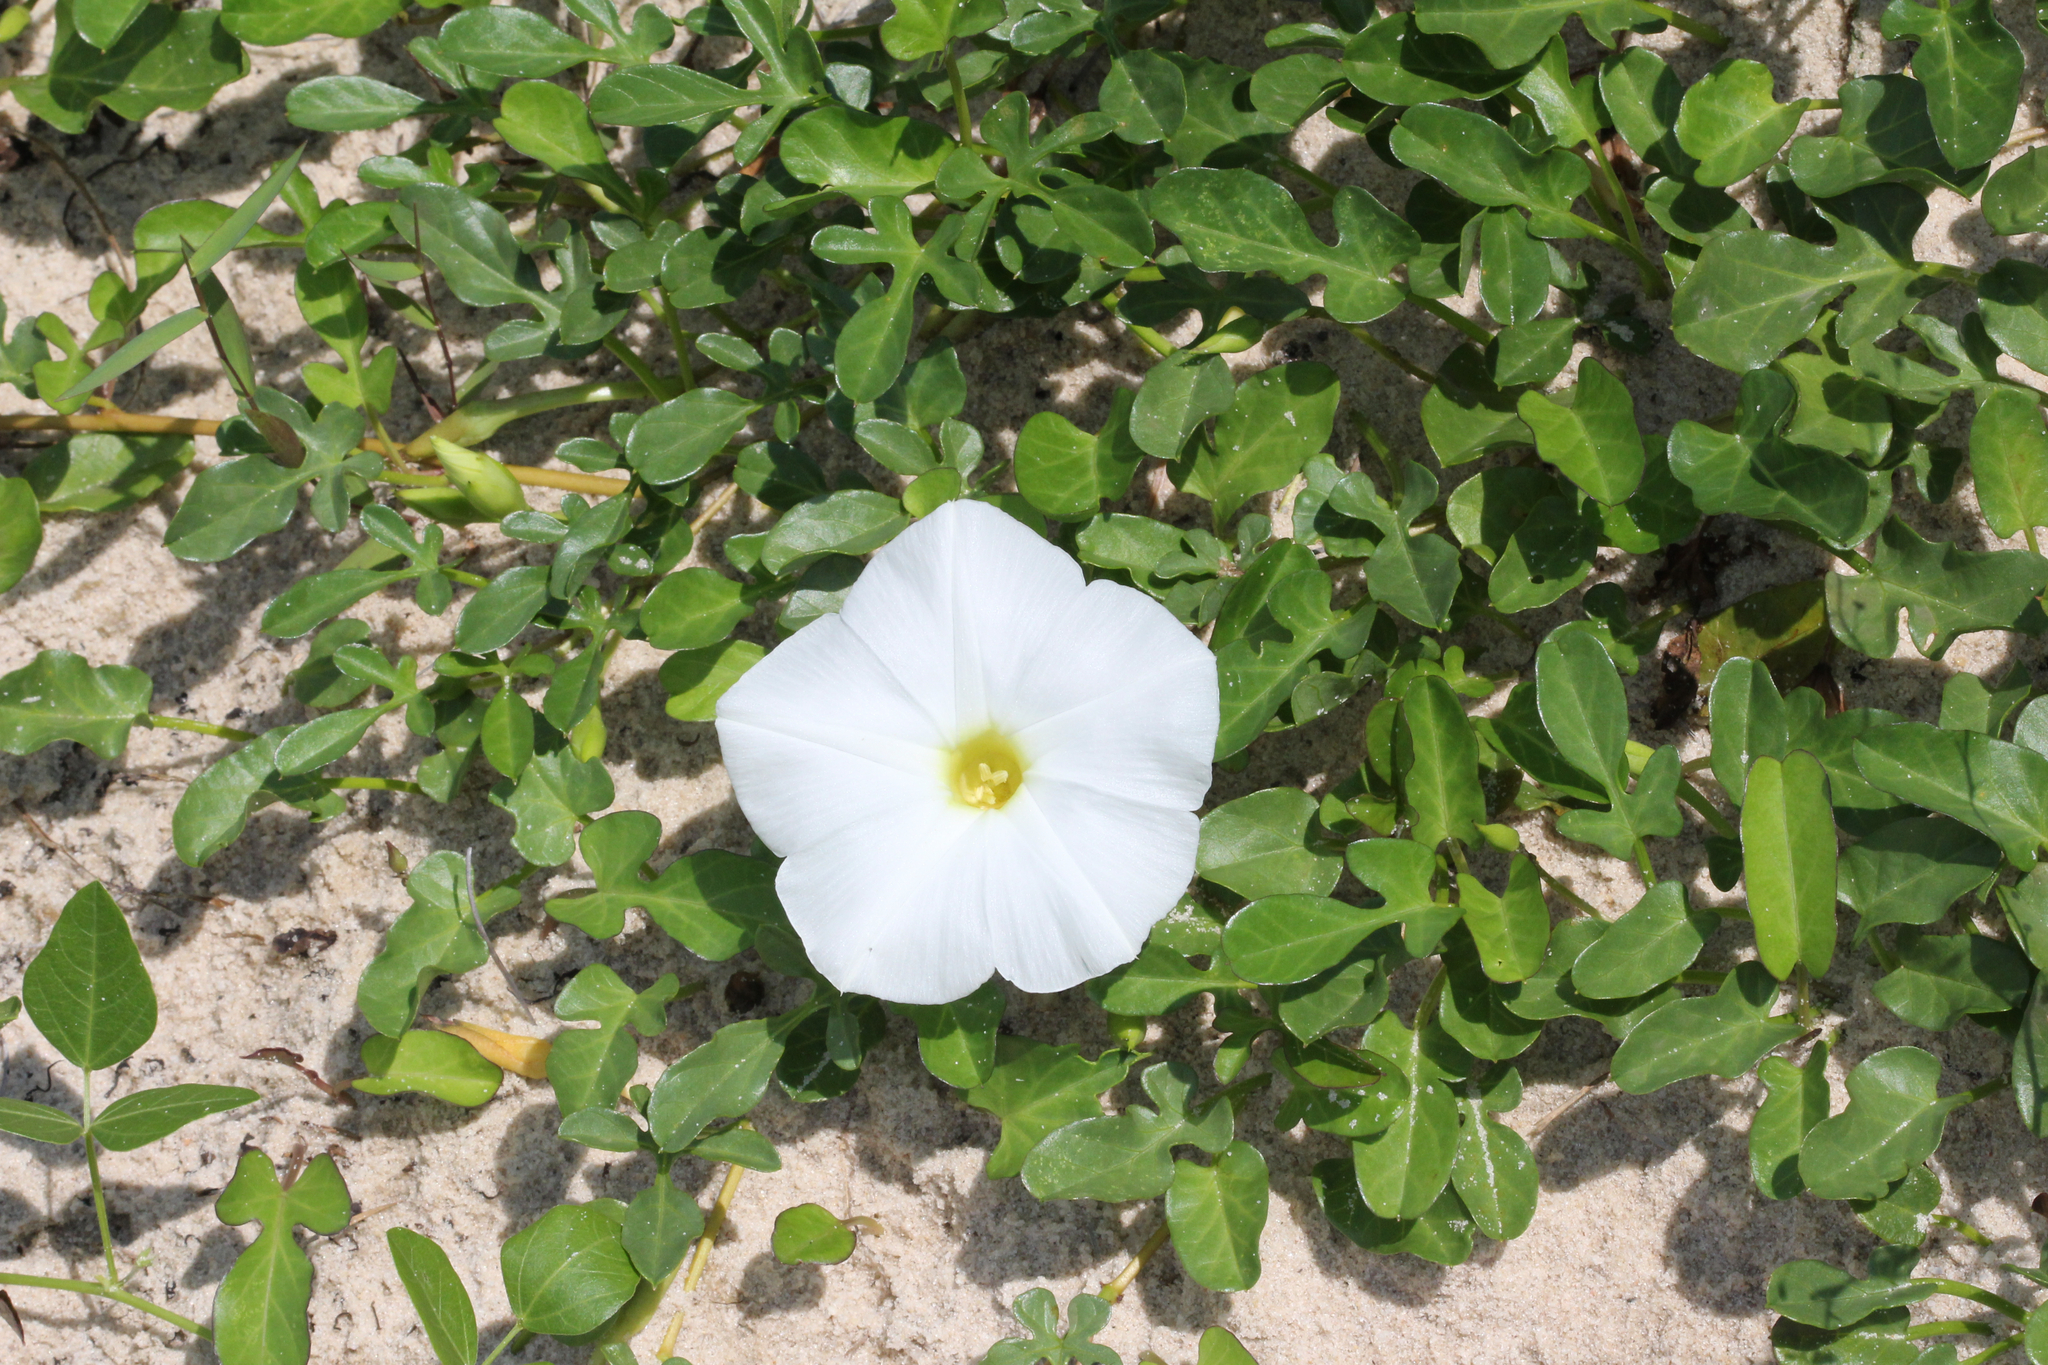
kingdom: Plantae
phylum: Tracheophyta
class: Magnoliopsida
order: Solanales
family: Convolvulaceae
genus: Ipomoea
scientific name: Ipomoea imperati
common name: Fiddle-leaf morning-glory
